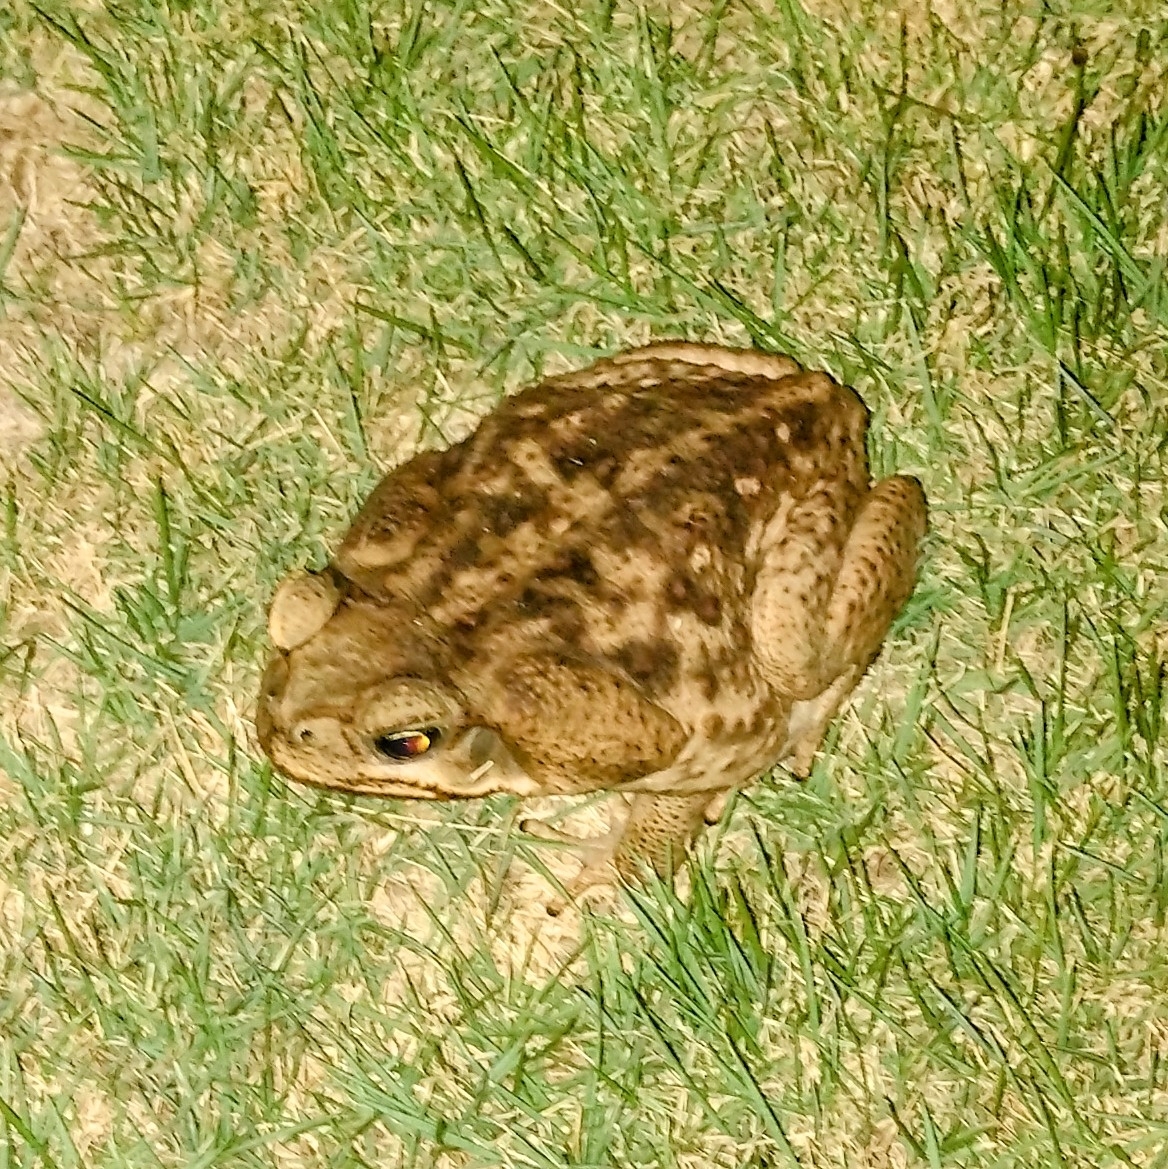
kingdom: Animalia
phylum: Chordata
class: Amphibia
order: Anura
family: Bufonidae
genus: Rhinella
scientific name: Rhinella horribilis
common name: Mesoamerican cane toad
